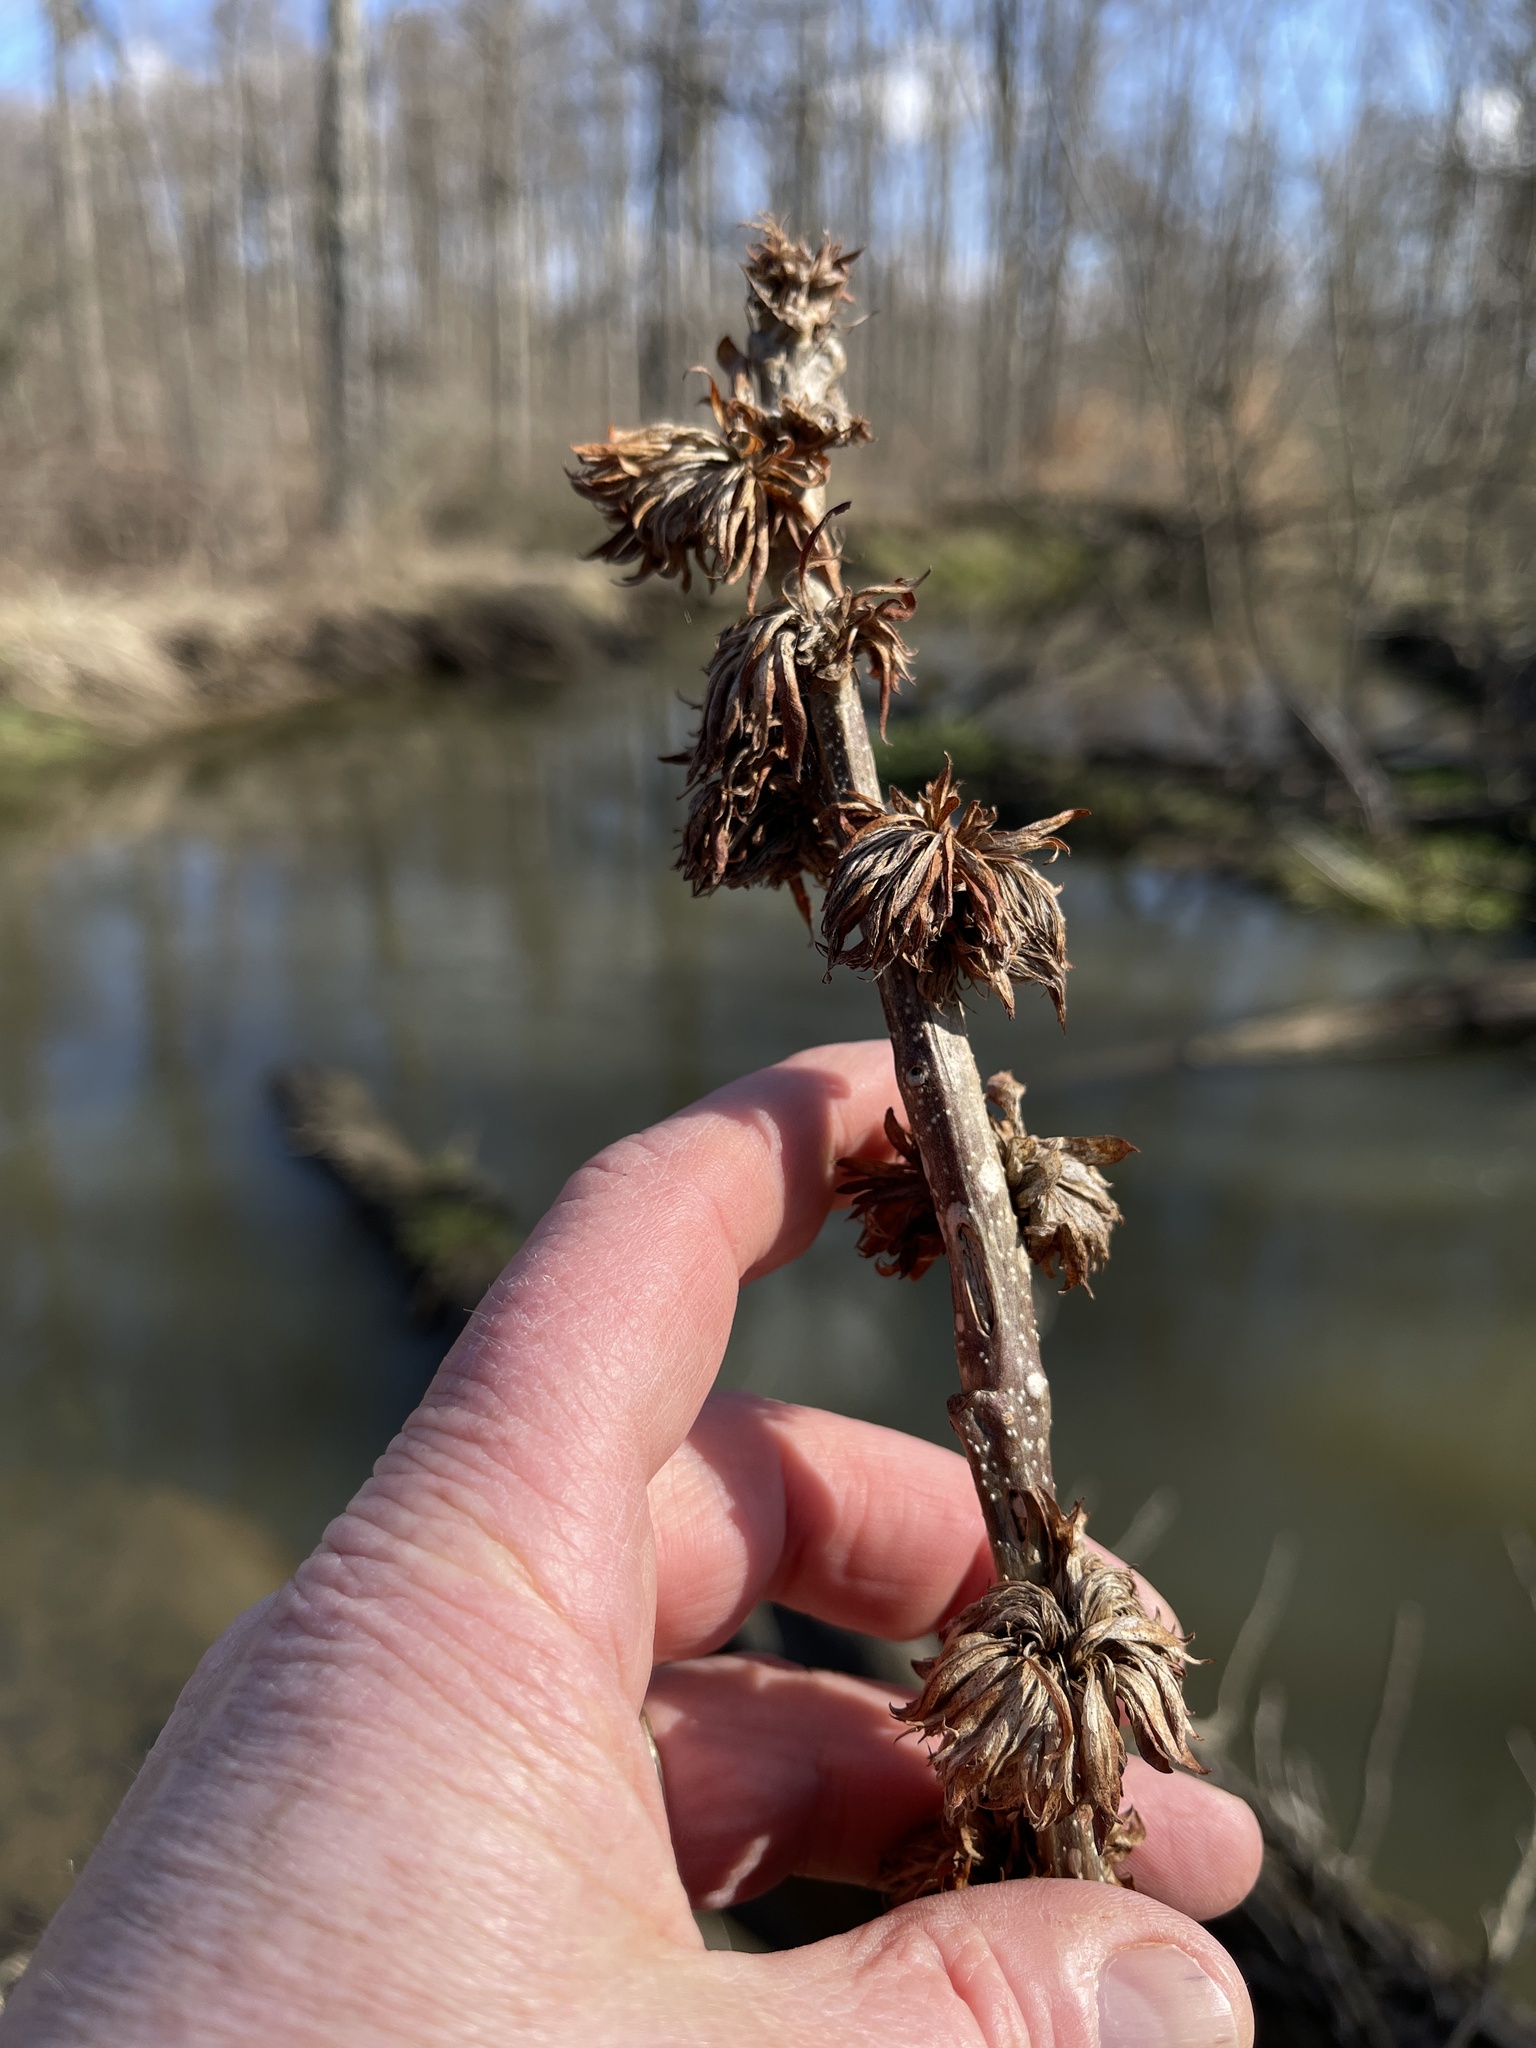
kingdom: Animalia
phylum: Arthropoda
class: Insecta
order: Hymenoptera
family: Cynipidae
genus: Andricus
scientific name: Andricus
